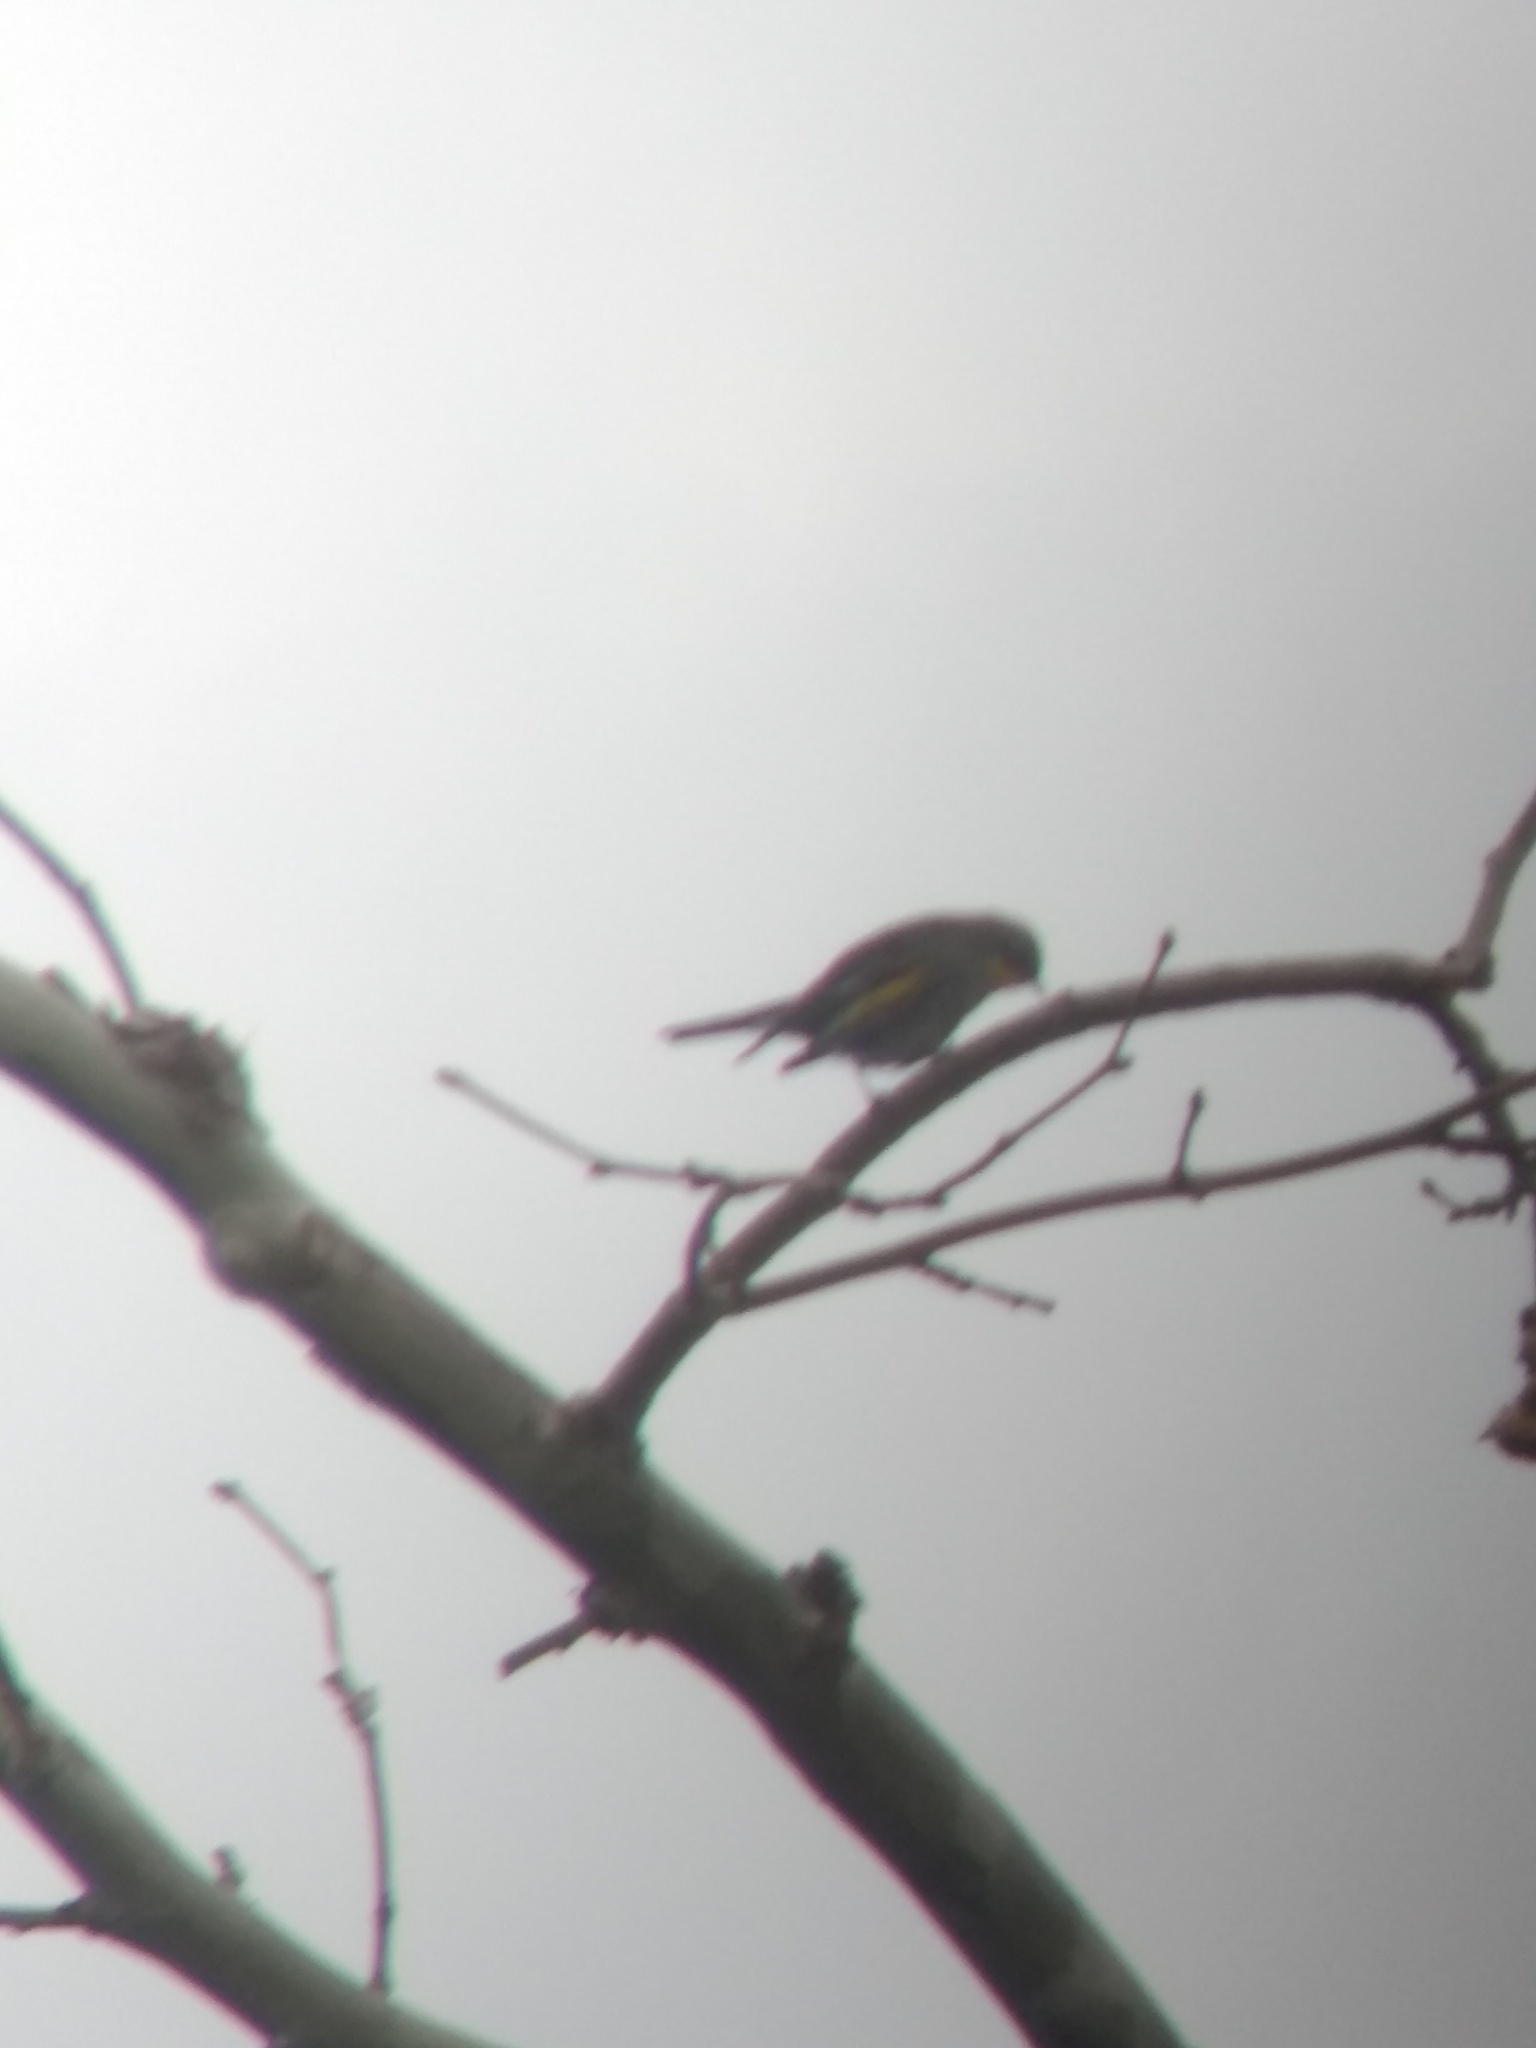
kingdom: Animalia
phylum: Chordata
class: Aves
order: Passeriformes
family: Parulidae
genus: Setophaga
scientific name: Setophaga coronata
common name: Myrtle warbler
